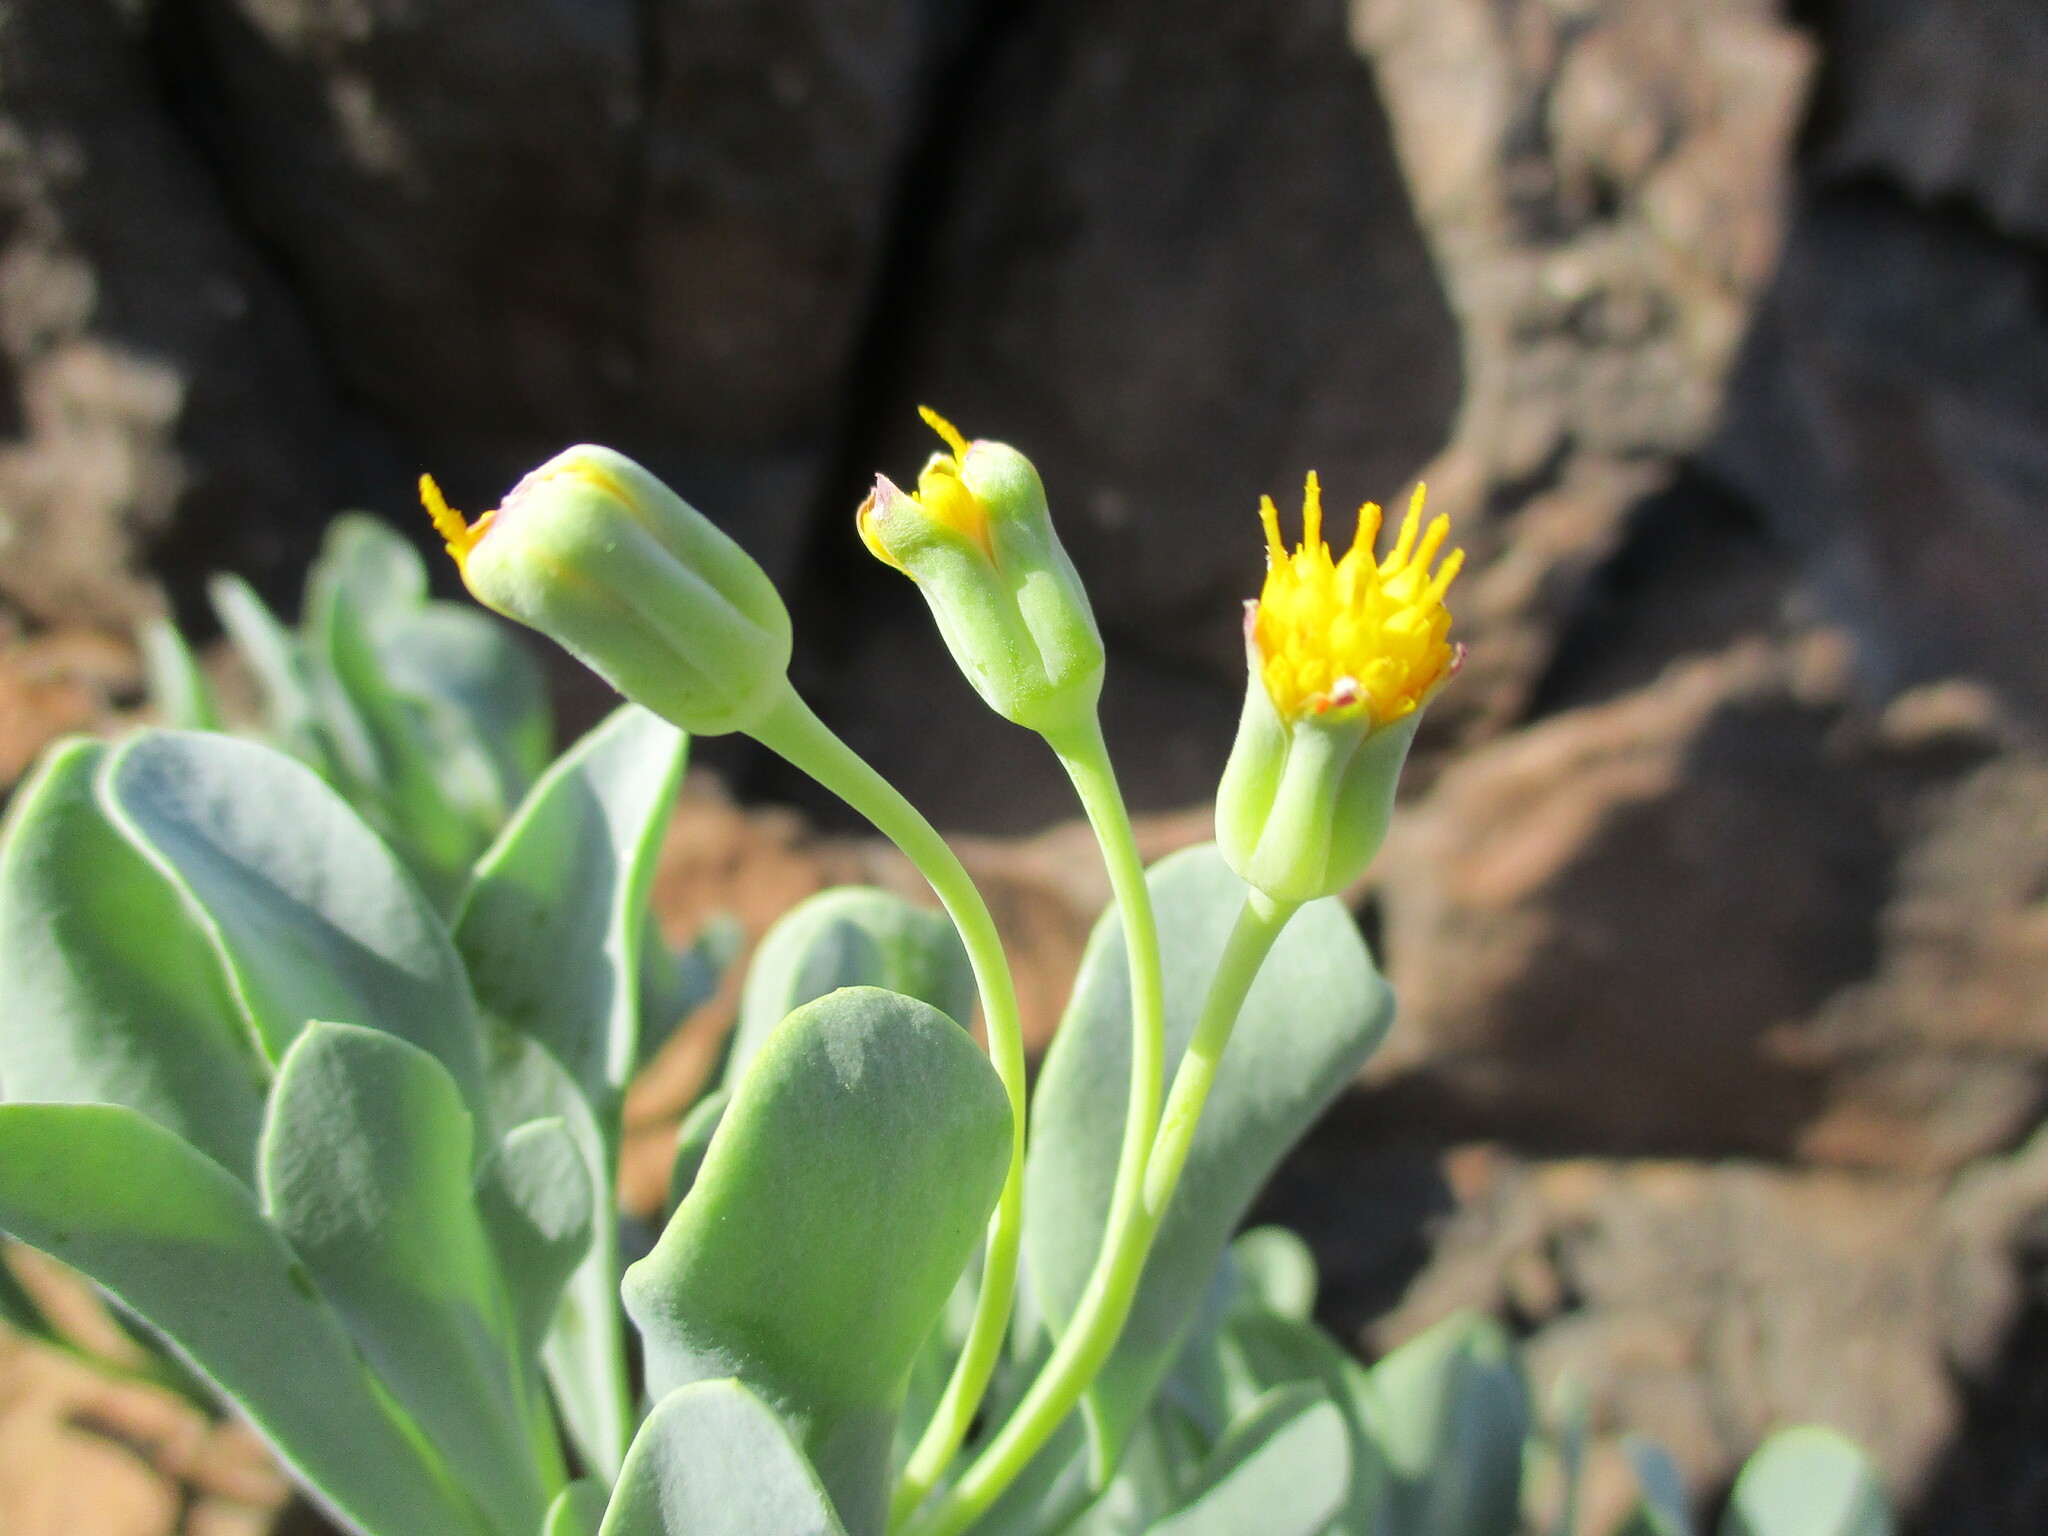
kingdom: Plantae
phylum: Tracheophyta
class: Magnoliopsida
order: Asterales
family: Asteraceae
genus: Othonna
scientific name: Othonna lasiocarpa
